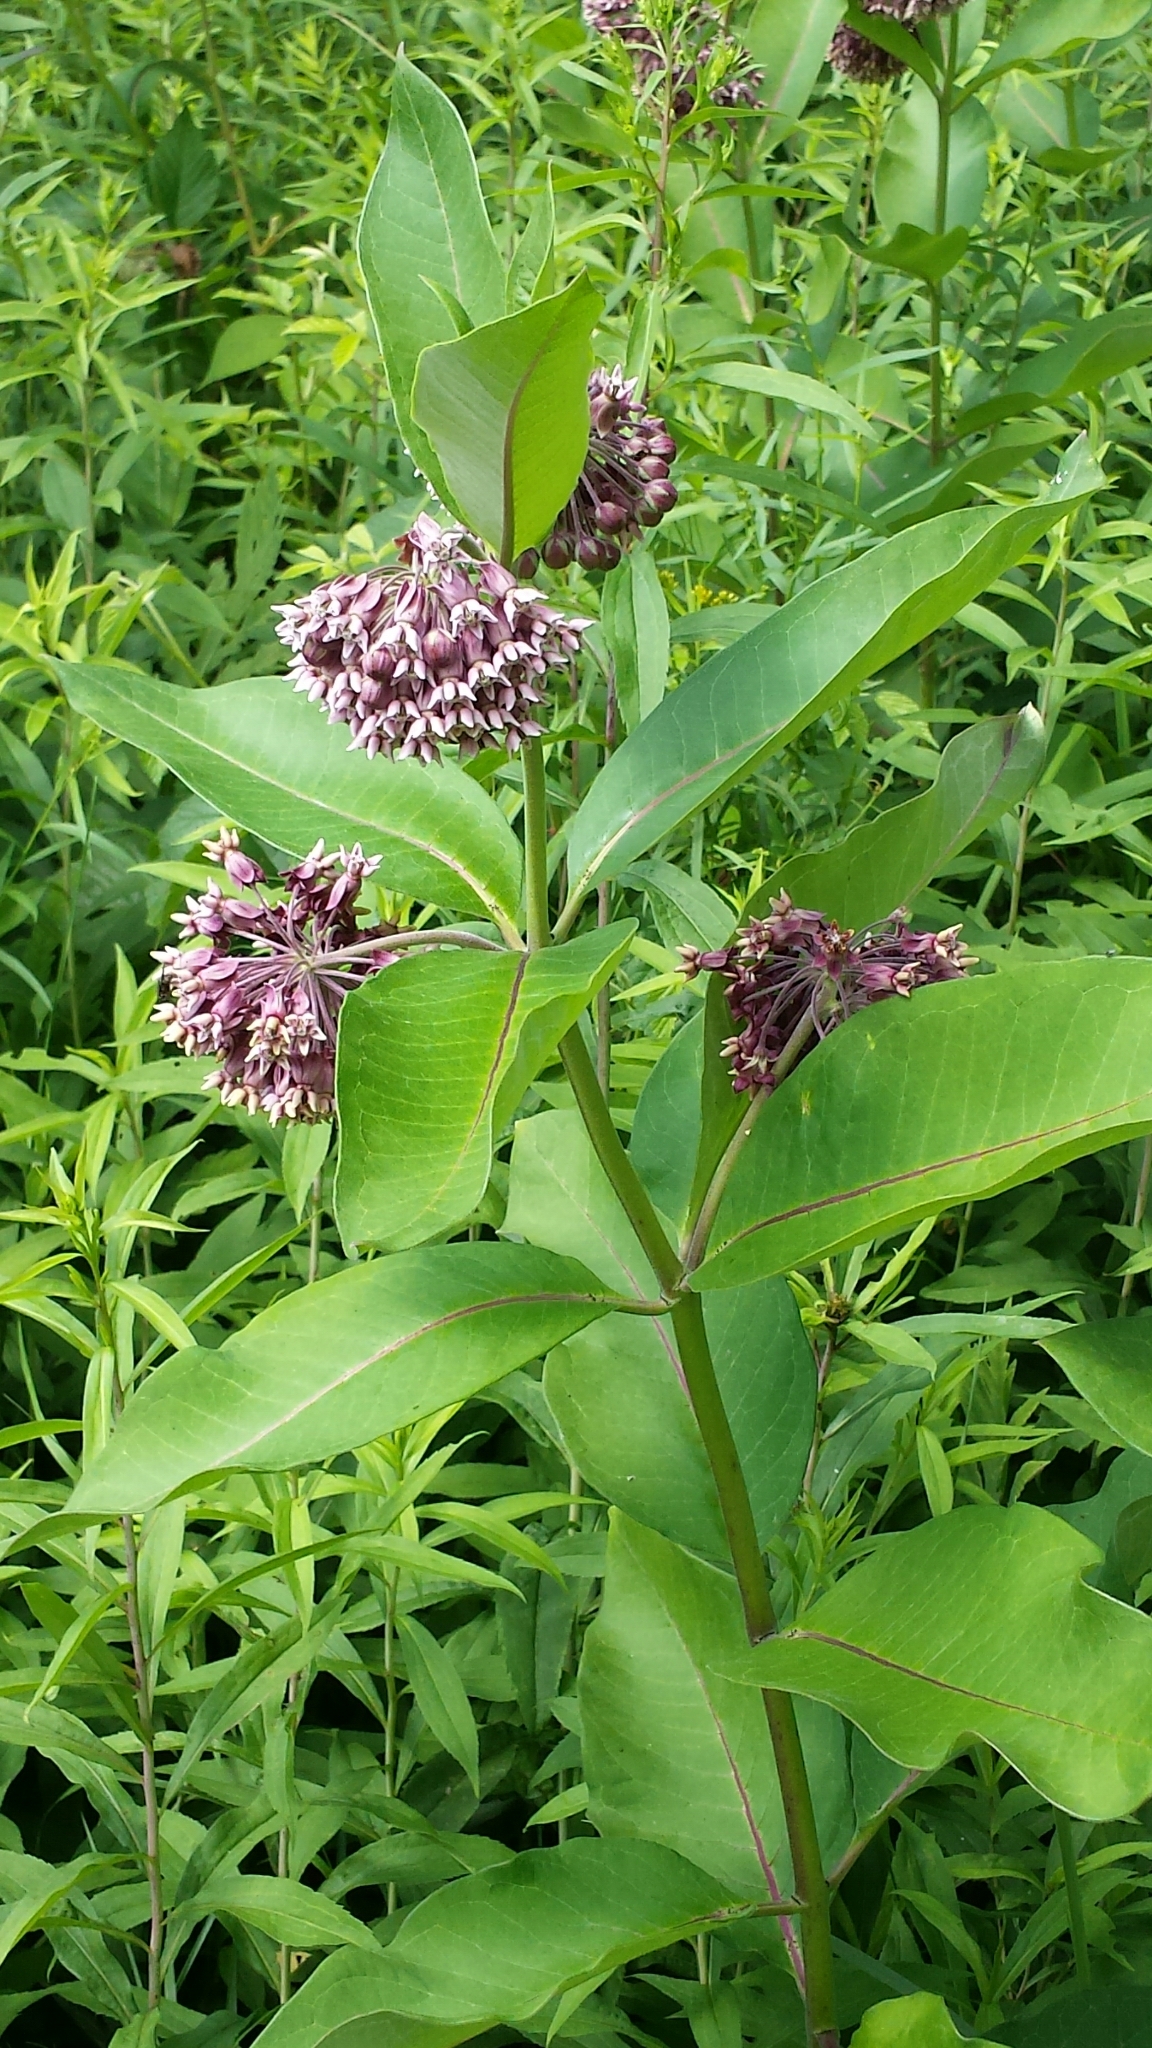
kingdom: Plantae
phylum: Tracheophyta
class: Magnoliopsida
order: Gentianales
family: Apocynaceae
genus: Asclepias
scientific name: Asclepias syriaca
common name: Common milkweed
